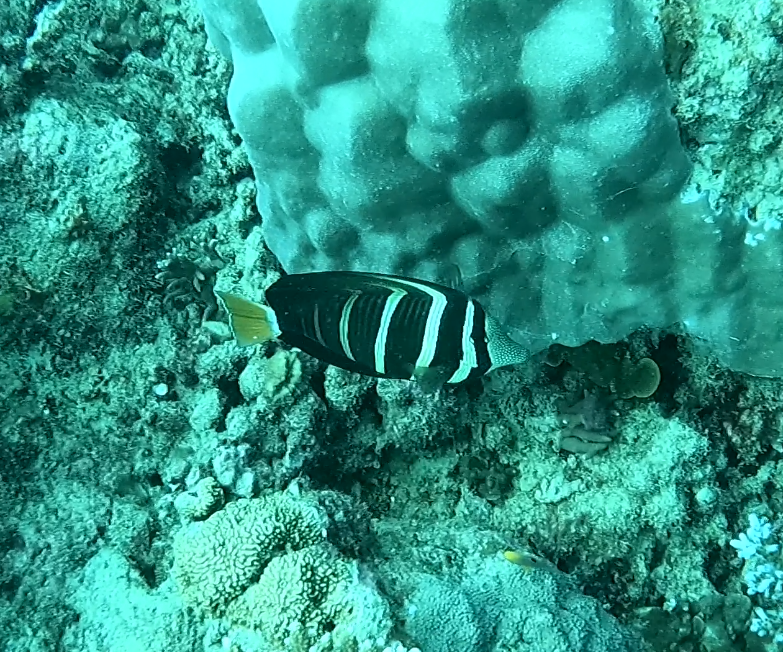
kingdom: Animalia
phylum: Chordata
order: Perciformes
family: Acanthuridae
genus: Zebrasoma
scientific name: Zebrasoma veliferum
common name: Sailfin surgeonfish
